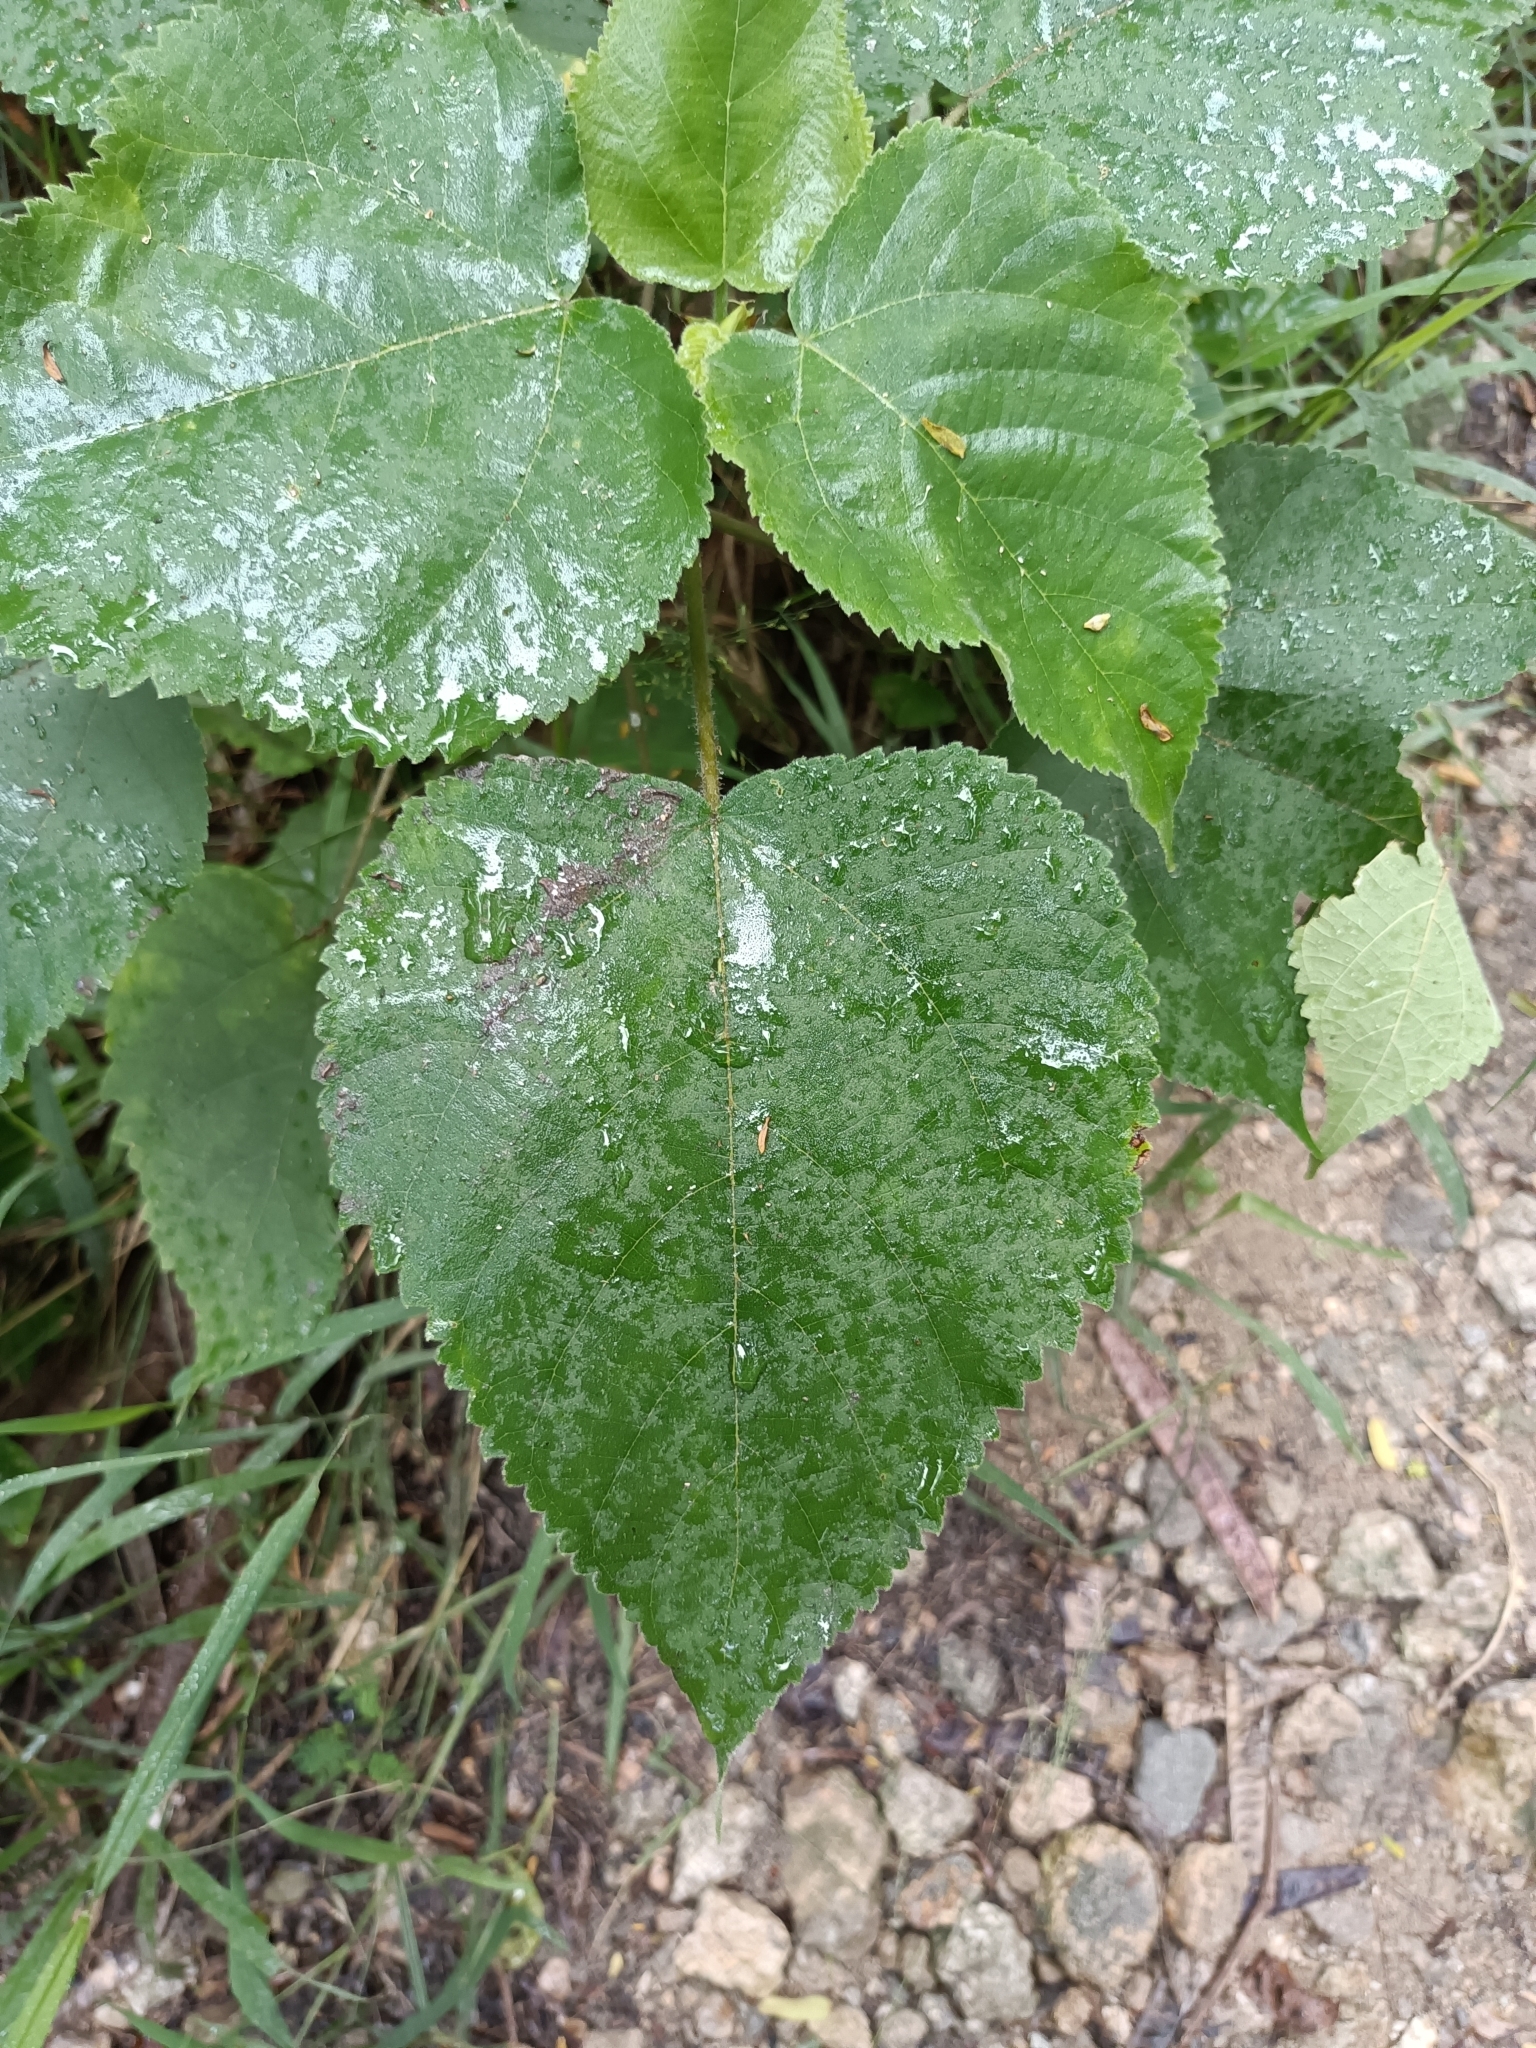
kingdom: Plantae
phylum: Tracheophyta
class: Magnoliopsida
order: Rosales
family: Moraceae
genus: Broussonetia
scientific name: Broussonetia papyrifera
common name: Paper mulberry
